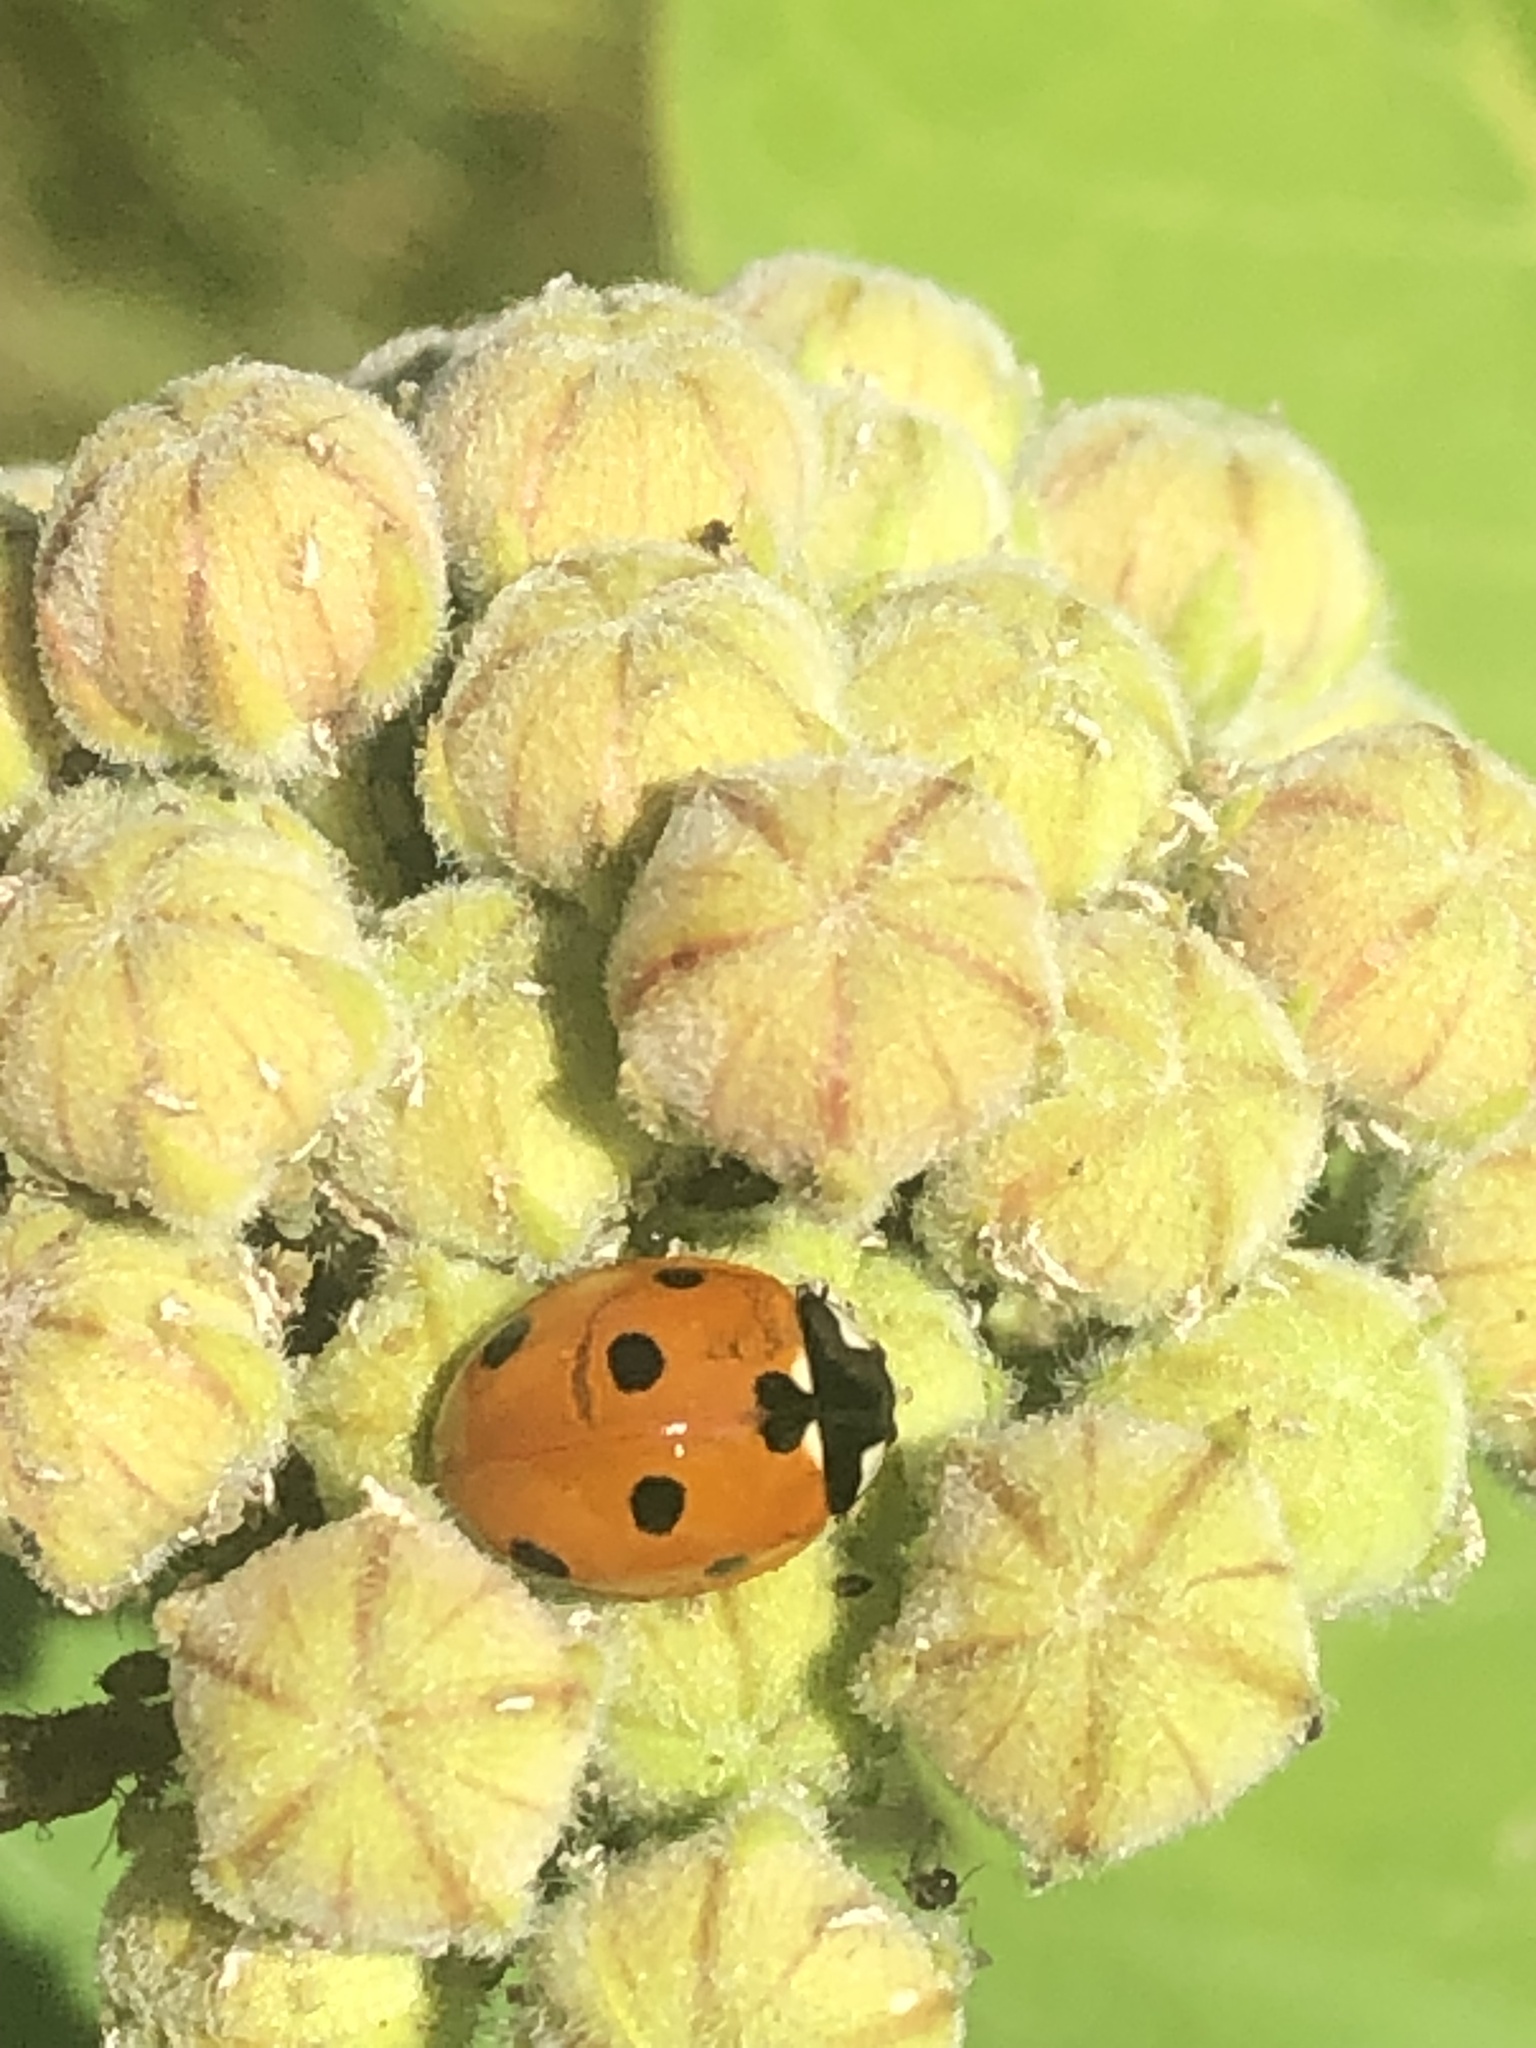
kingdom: Animalia
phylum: Arthropoda
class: Insecta
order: Coleoptera
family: Coccinellidae
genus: Coccinella
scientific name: Coccinella septempunctata
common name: Sevenspotted lady beetle
